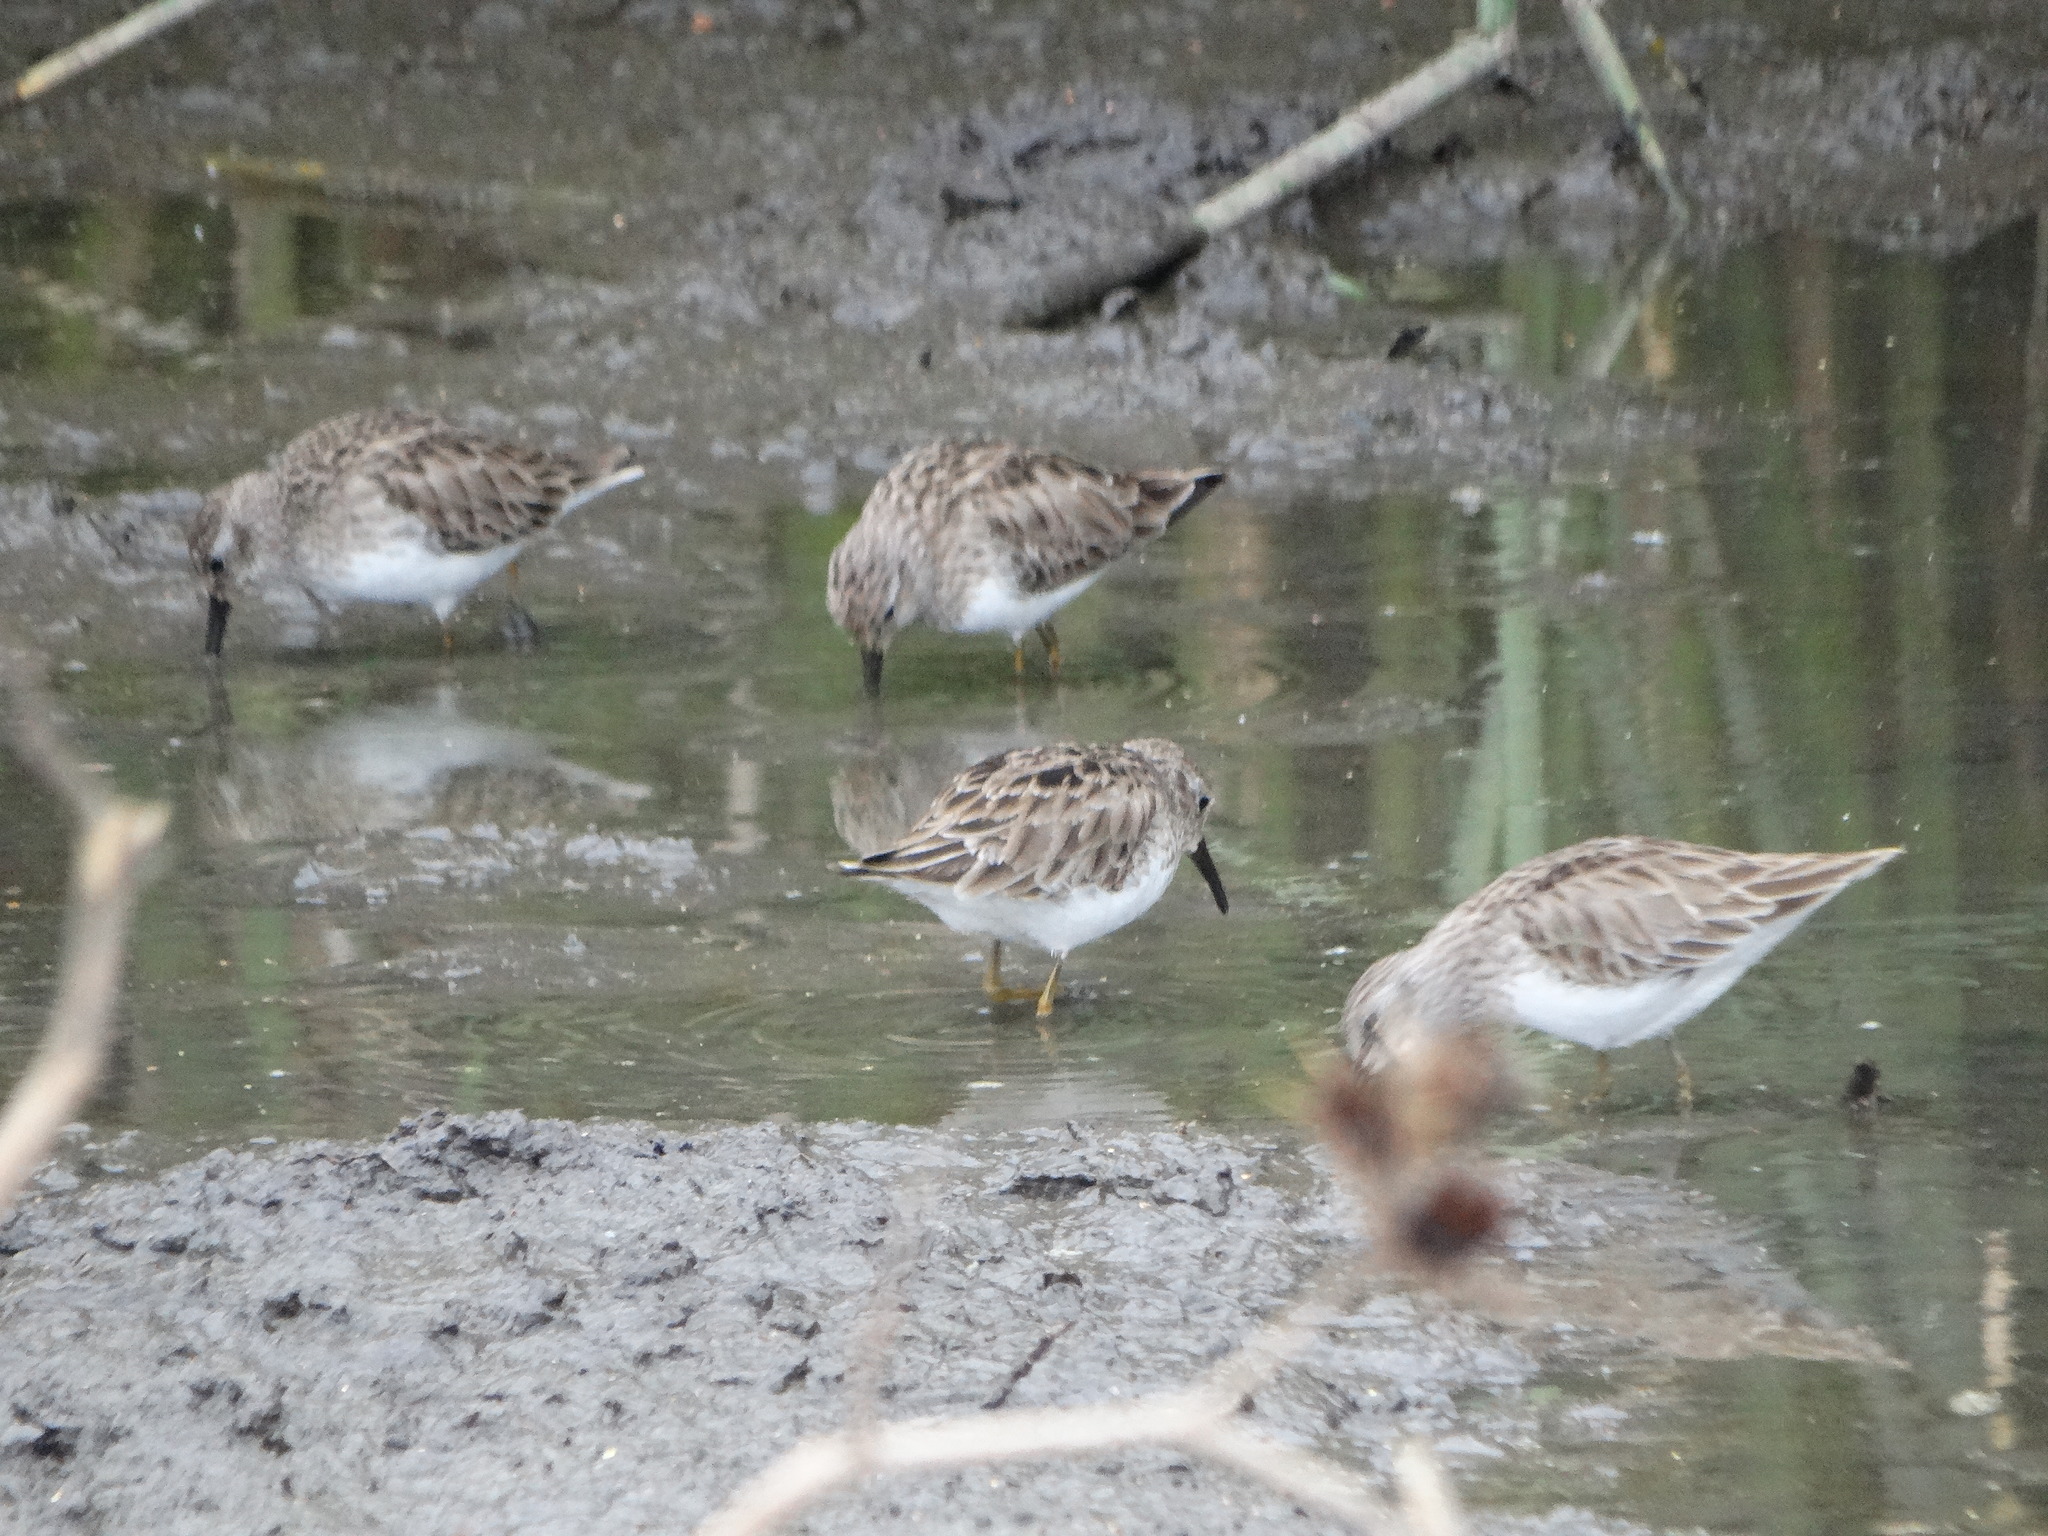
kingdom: Animalia
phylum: Chordata
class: Aves
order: Charadriiformes
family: Scolopacidae
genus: Calidris
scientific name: Calidris minutilla
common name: Least sandpiper
